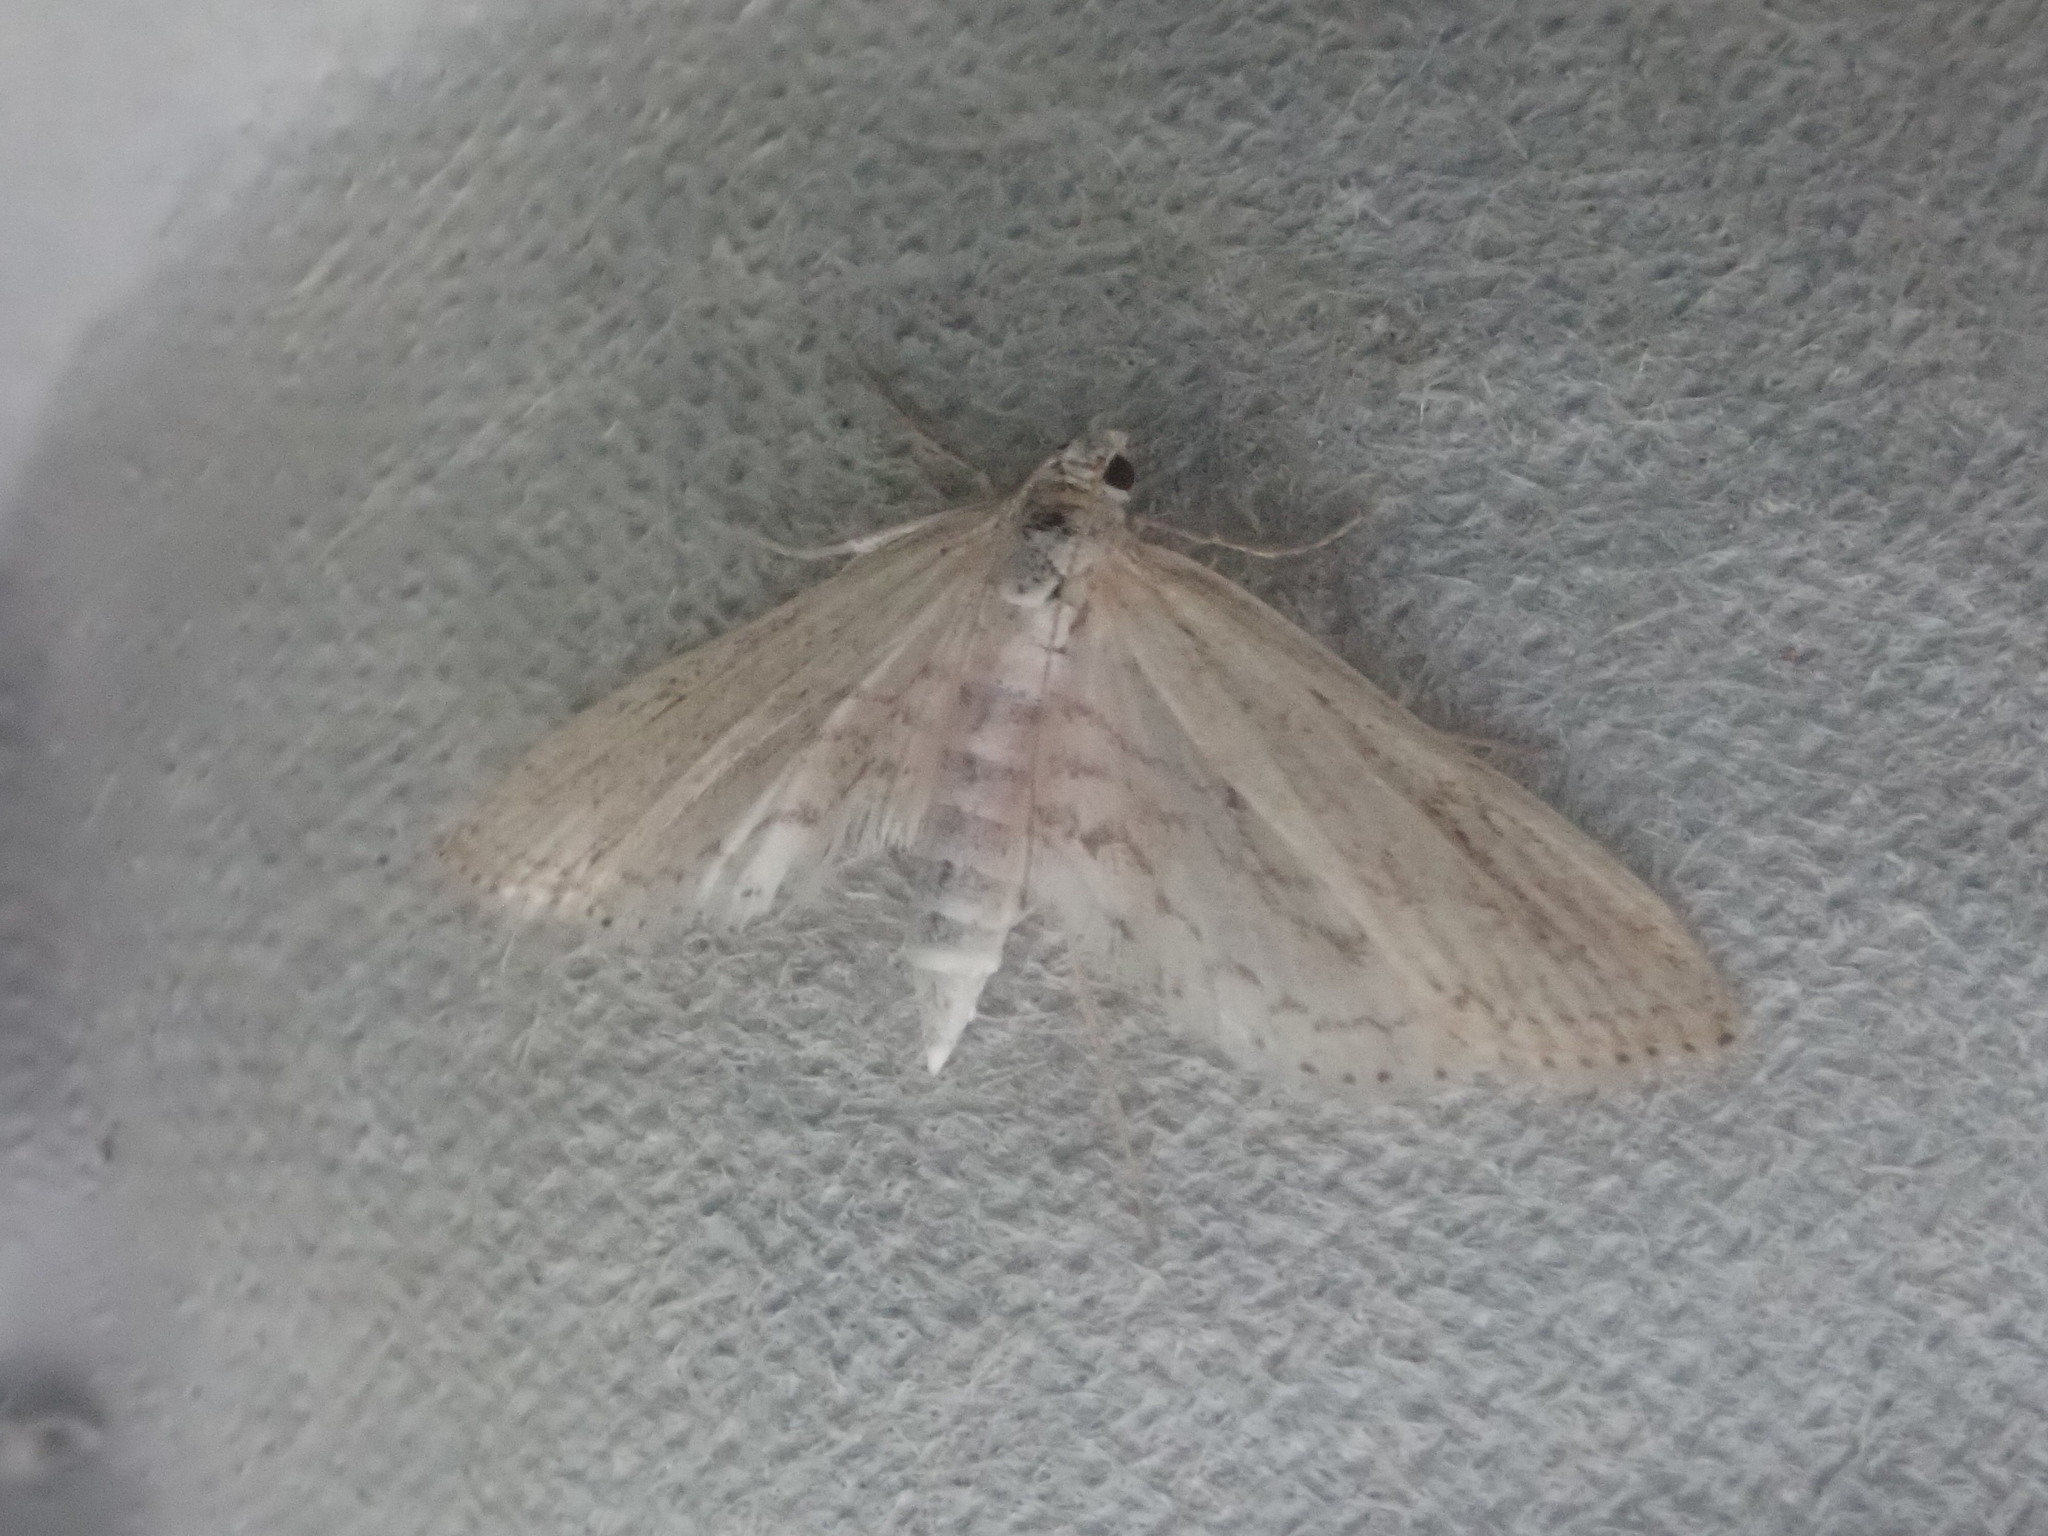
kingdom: Animalia
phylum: Arthropoda
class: Insecta
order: Lepidoptera
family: Crambidae
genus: Parapoynx
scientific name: Parapoynx allionealis
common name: Bladderwort casemaker
